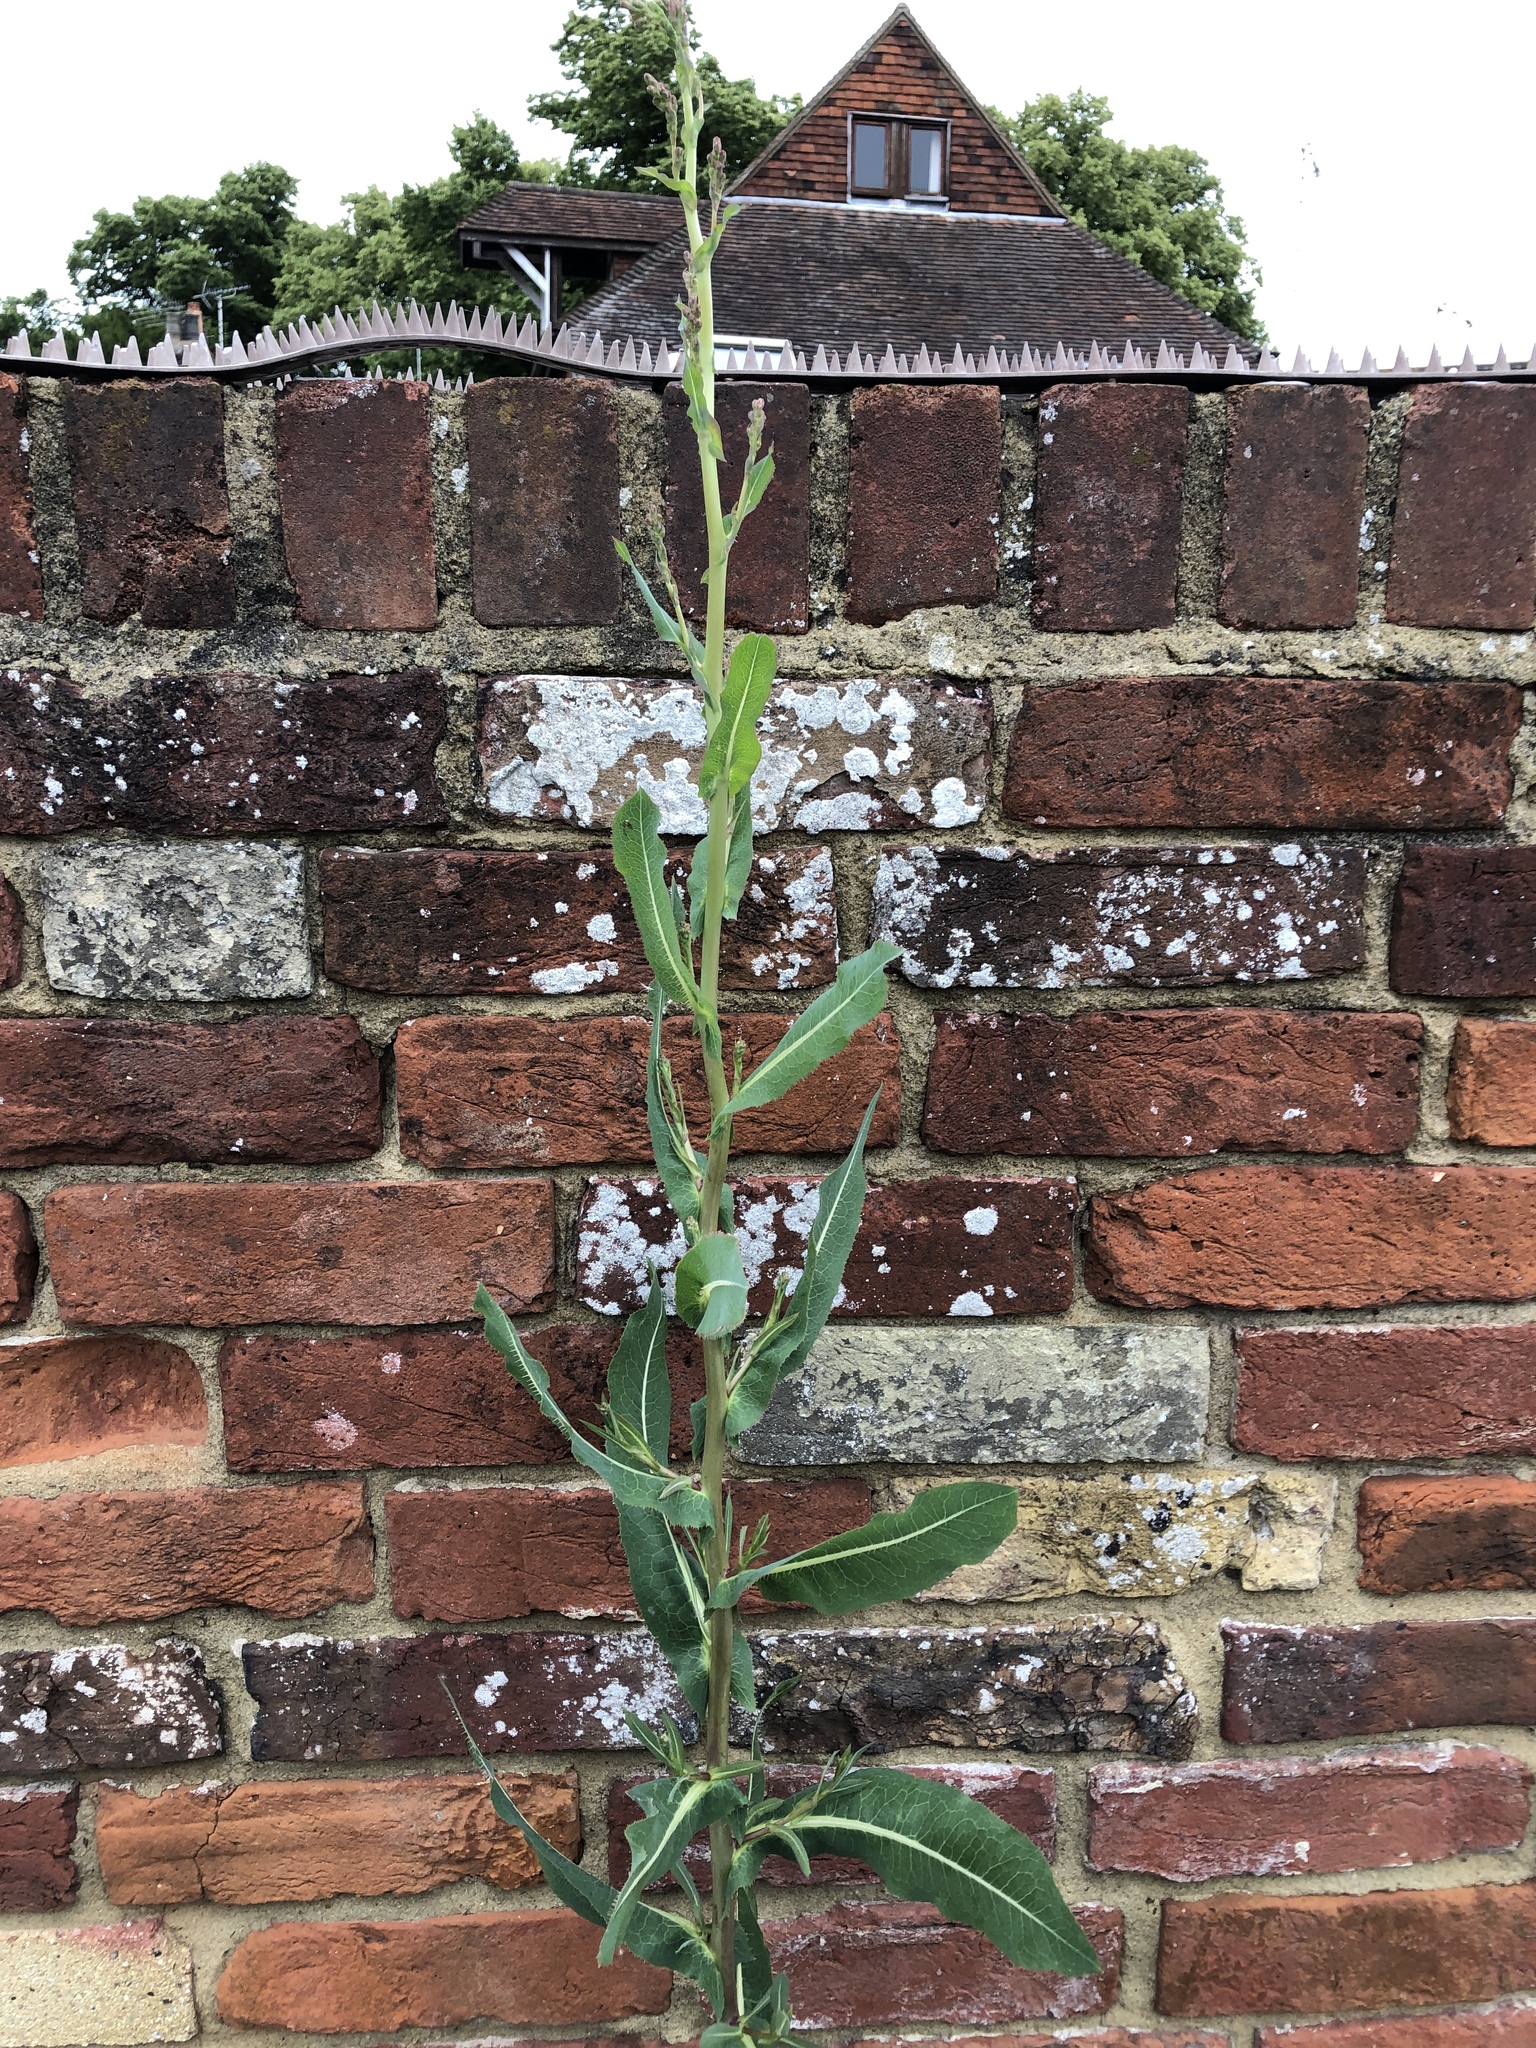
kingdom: Plantae
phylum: Tracheophyta
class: Magnoliopsida
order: Asterales
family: Asteraceae
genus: Lactuca
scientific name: Lactuca serriola
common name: Prickly lettuce
